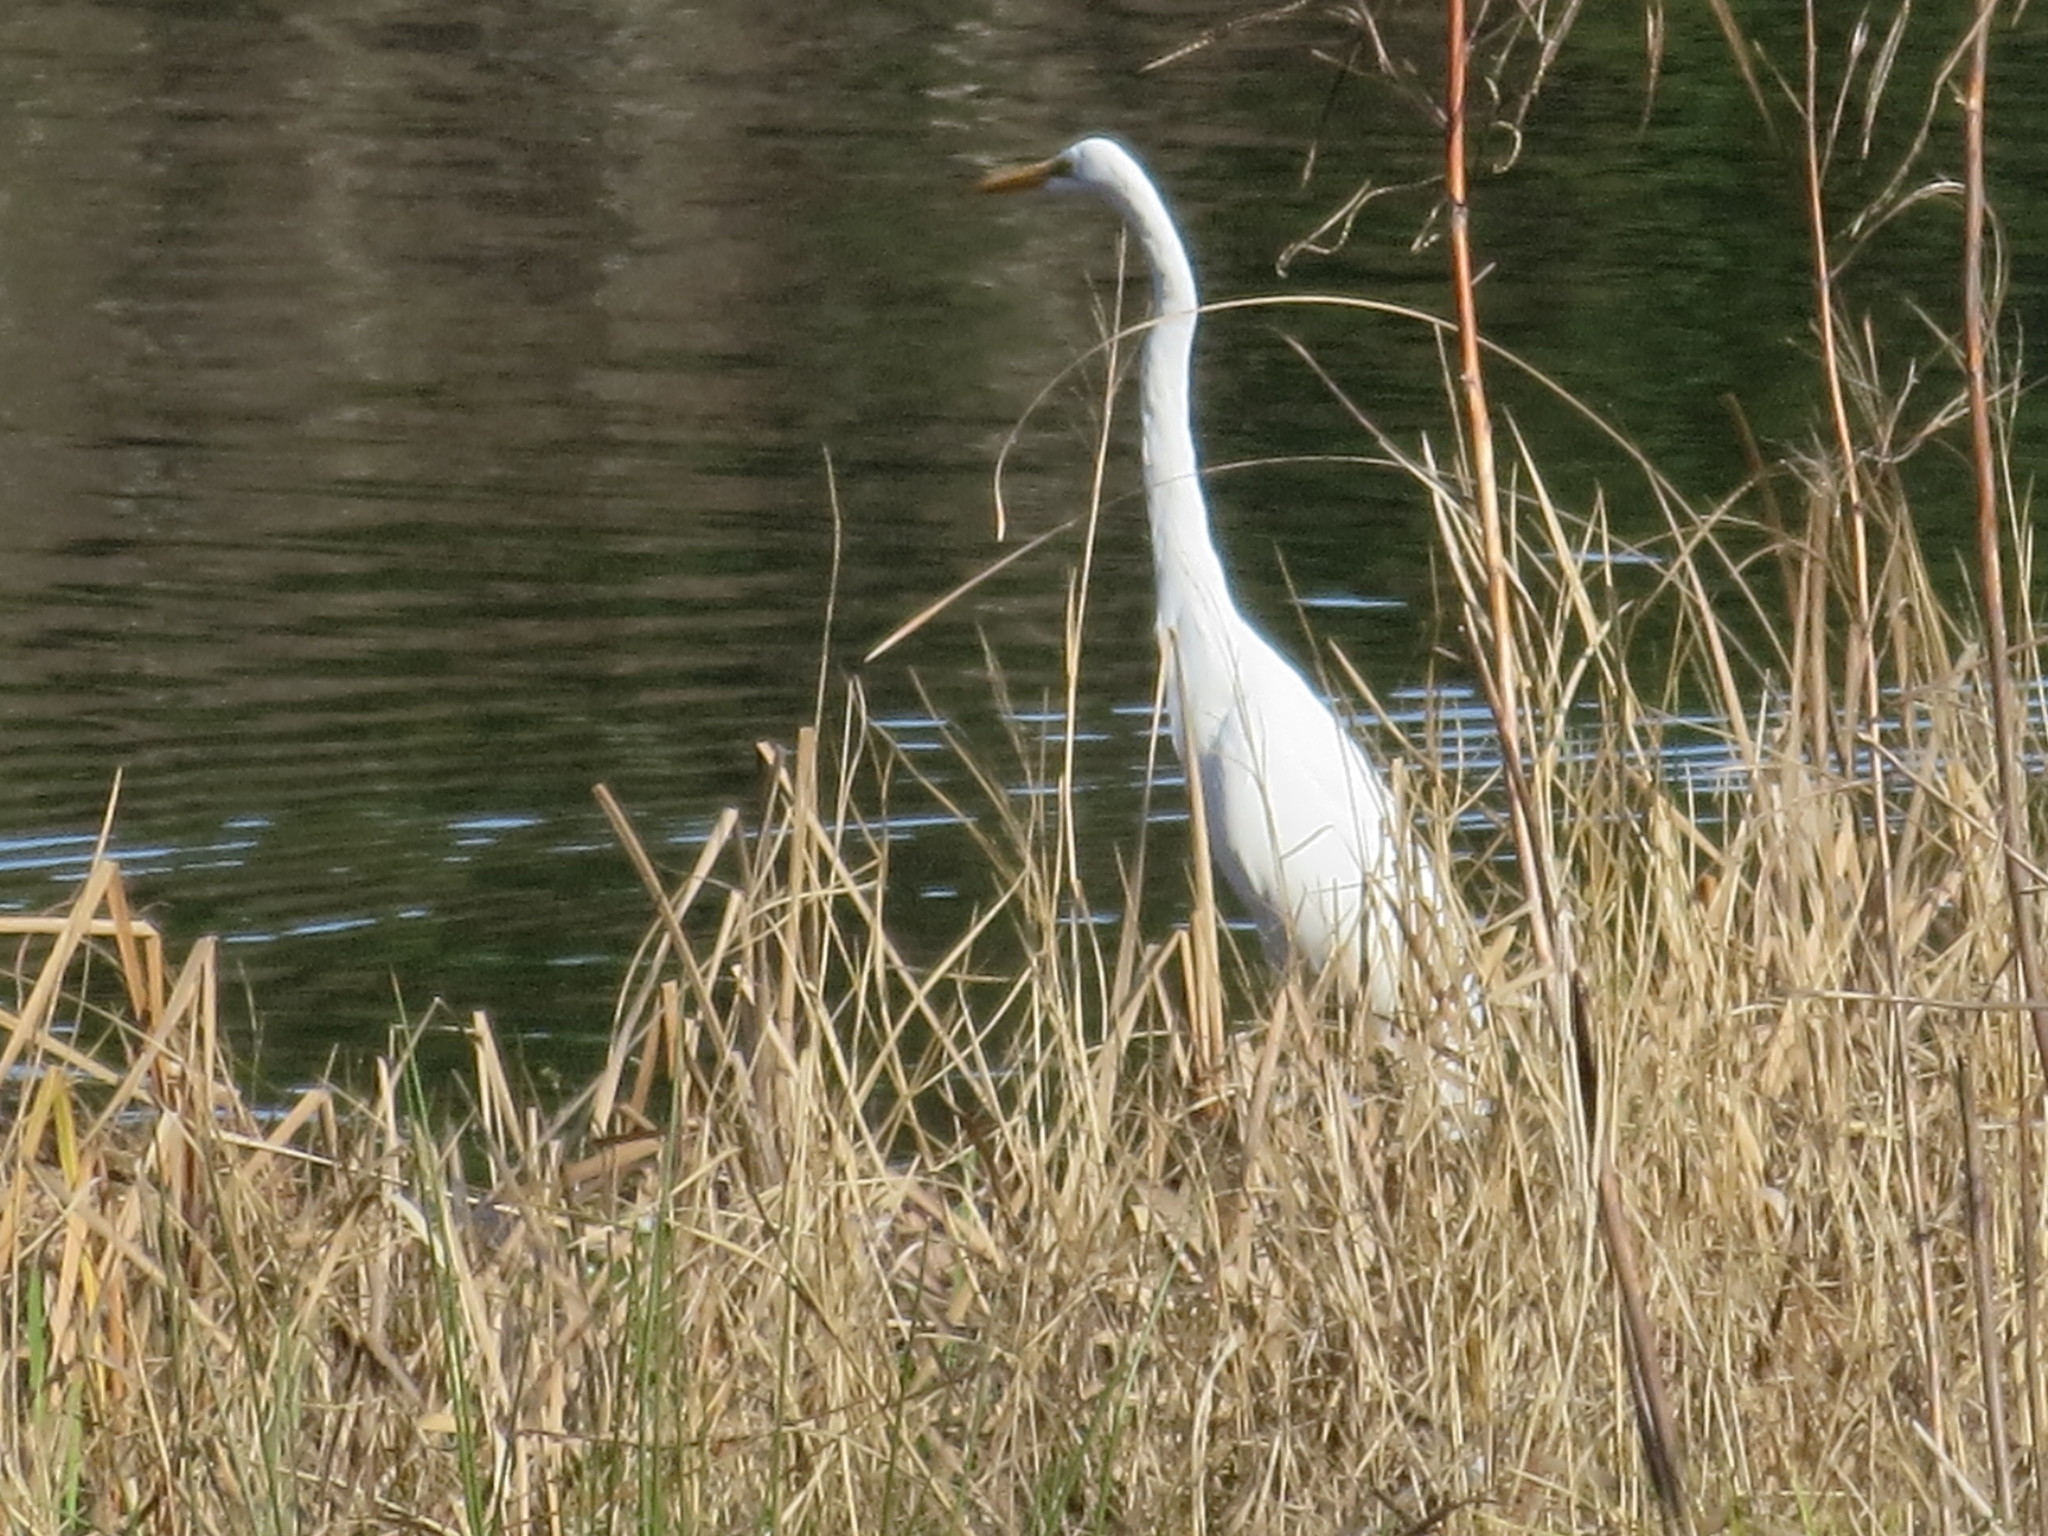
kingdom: Animalia
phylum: Chordata
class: Aves
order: Pelecaniformes
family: Ardeidae
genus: Ardea
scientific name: Ardea alba
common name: Great egret
